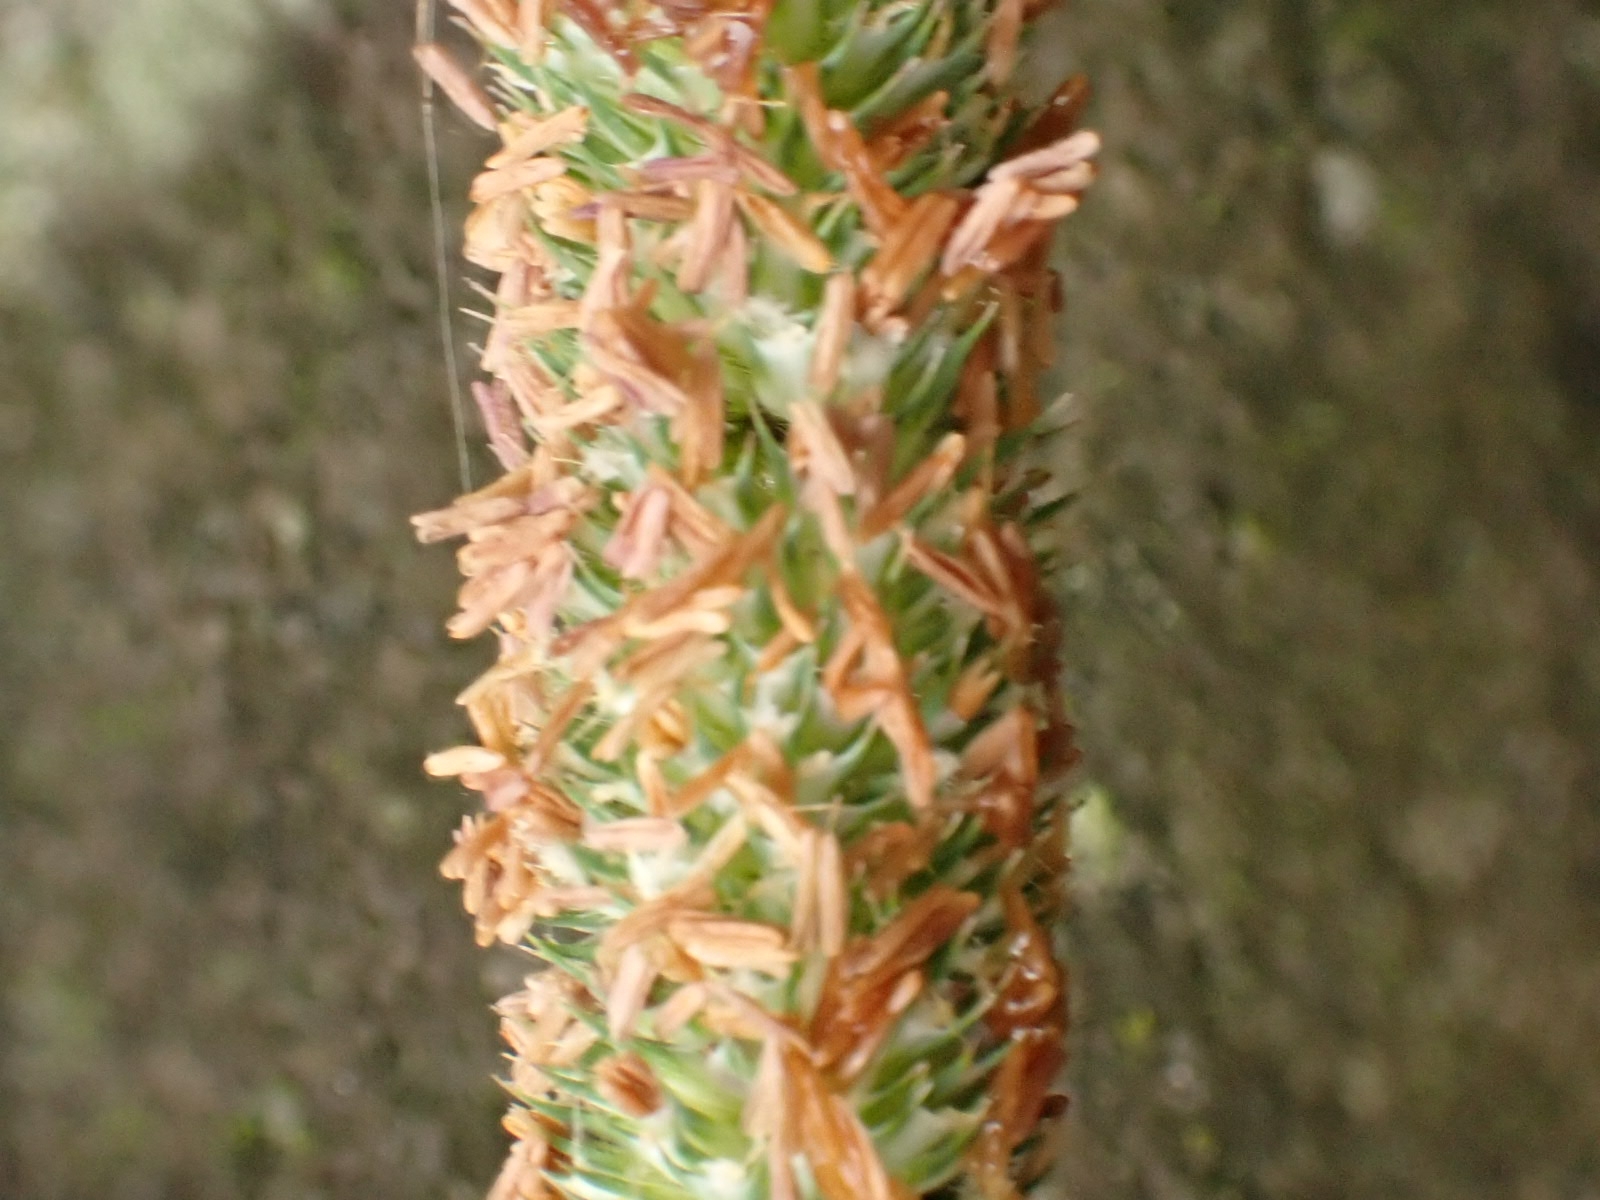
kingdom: Plantae
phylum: Tracheophyta
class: Liliopsida
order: Poales
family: Poaceae
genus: Phleum
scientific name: Phleum pratense
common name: Timothy grass
